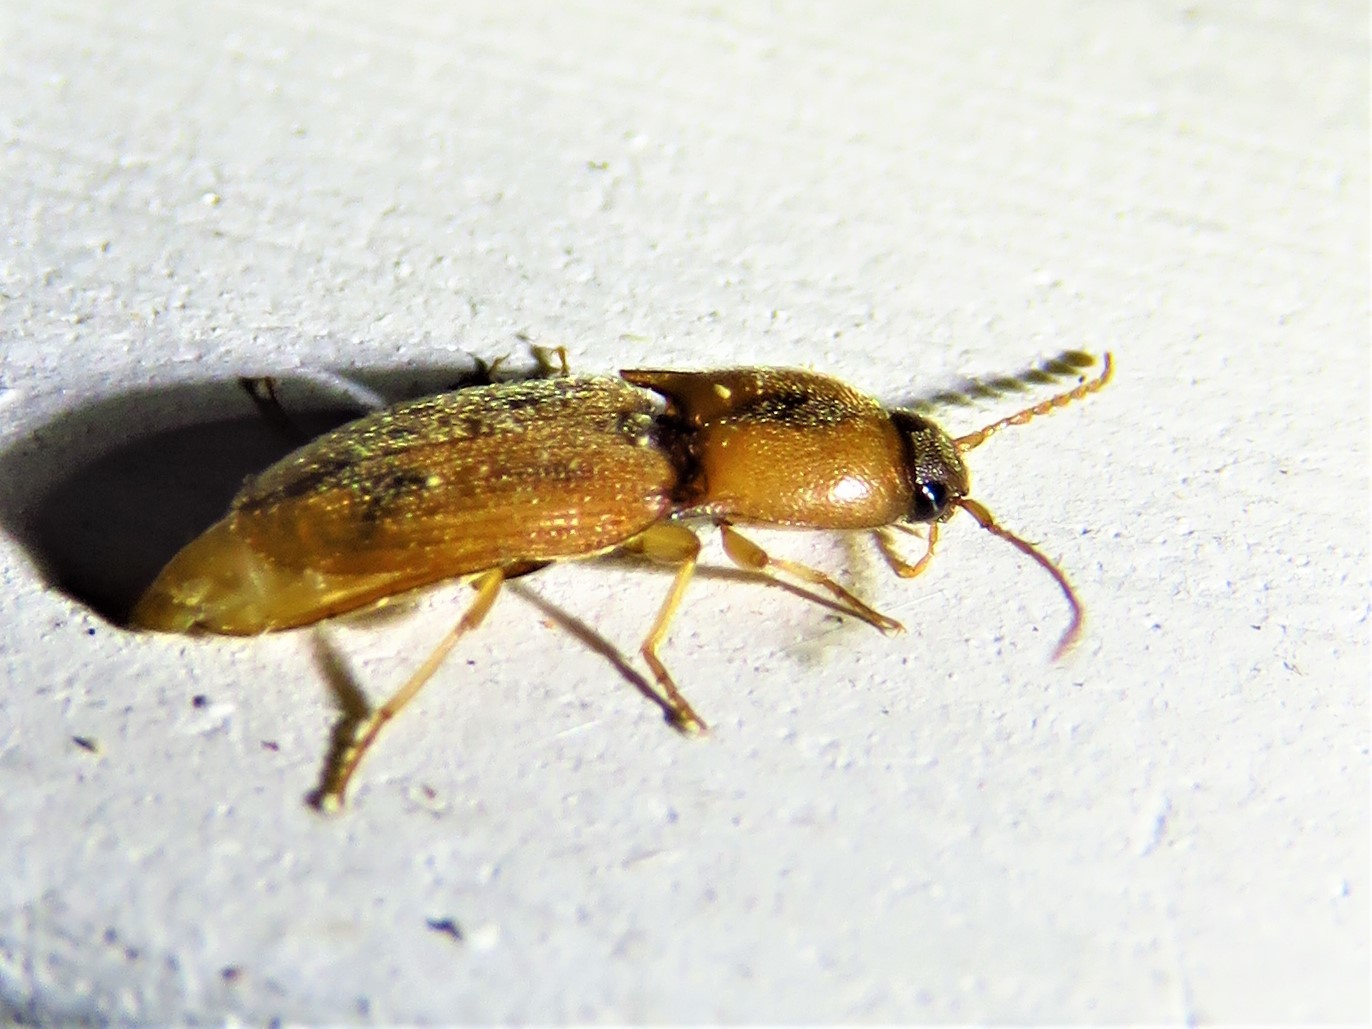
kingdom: Animalia
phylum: Arthropoda
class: Insecta
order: Coleoptera
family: Elateridae
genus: Aeolus
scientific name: Aeolus mellillus
